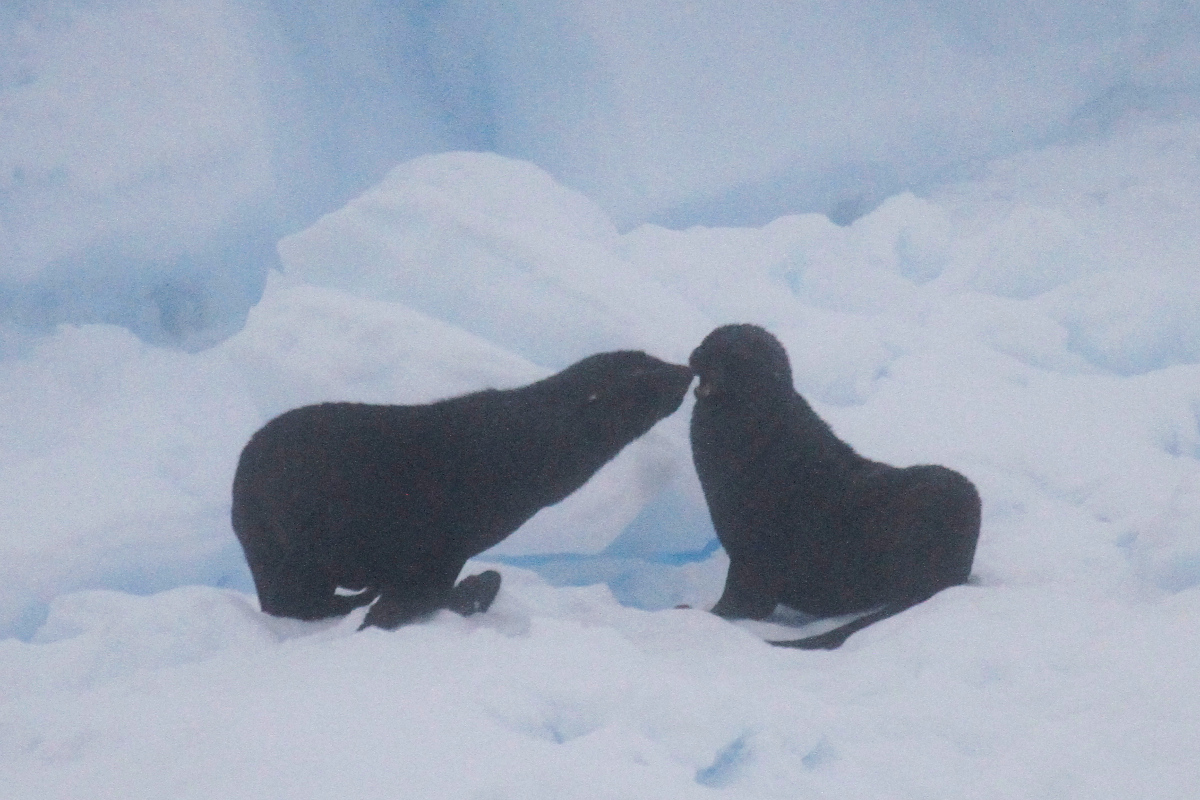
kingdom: Animalia
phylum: Chordata
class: Mammalia
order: Carnivora
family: Otariidae
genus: Arctocephalus
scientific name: Arctocephalus gazella
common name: Antarctic fur seal
